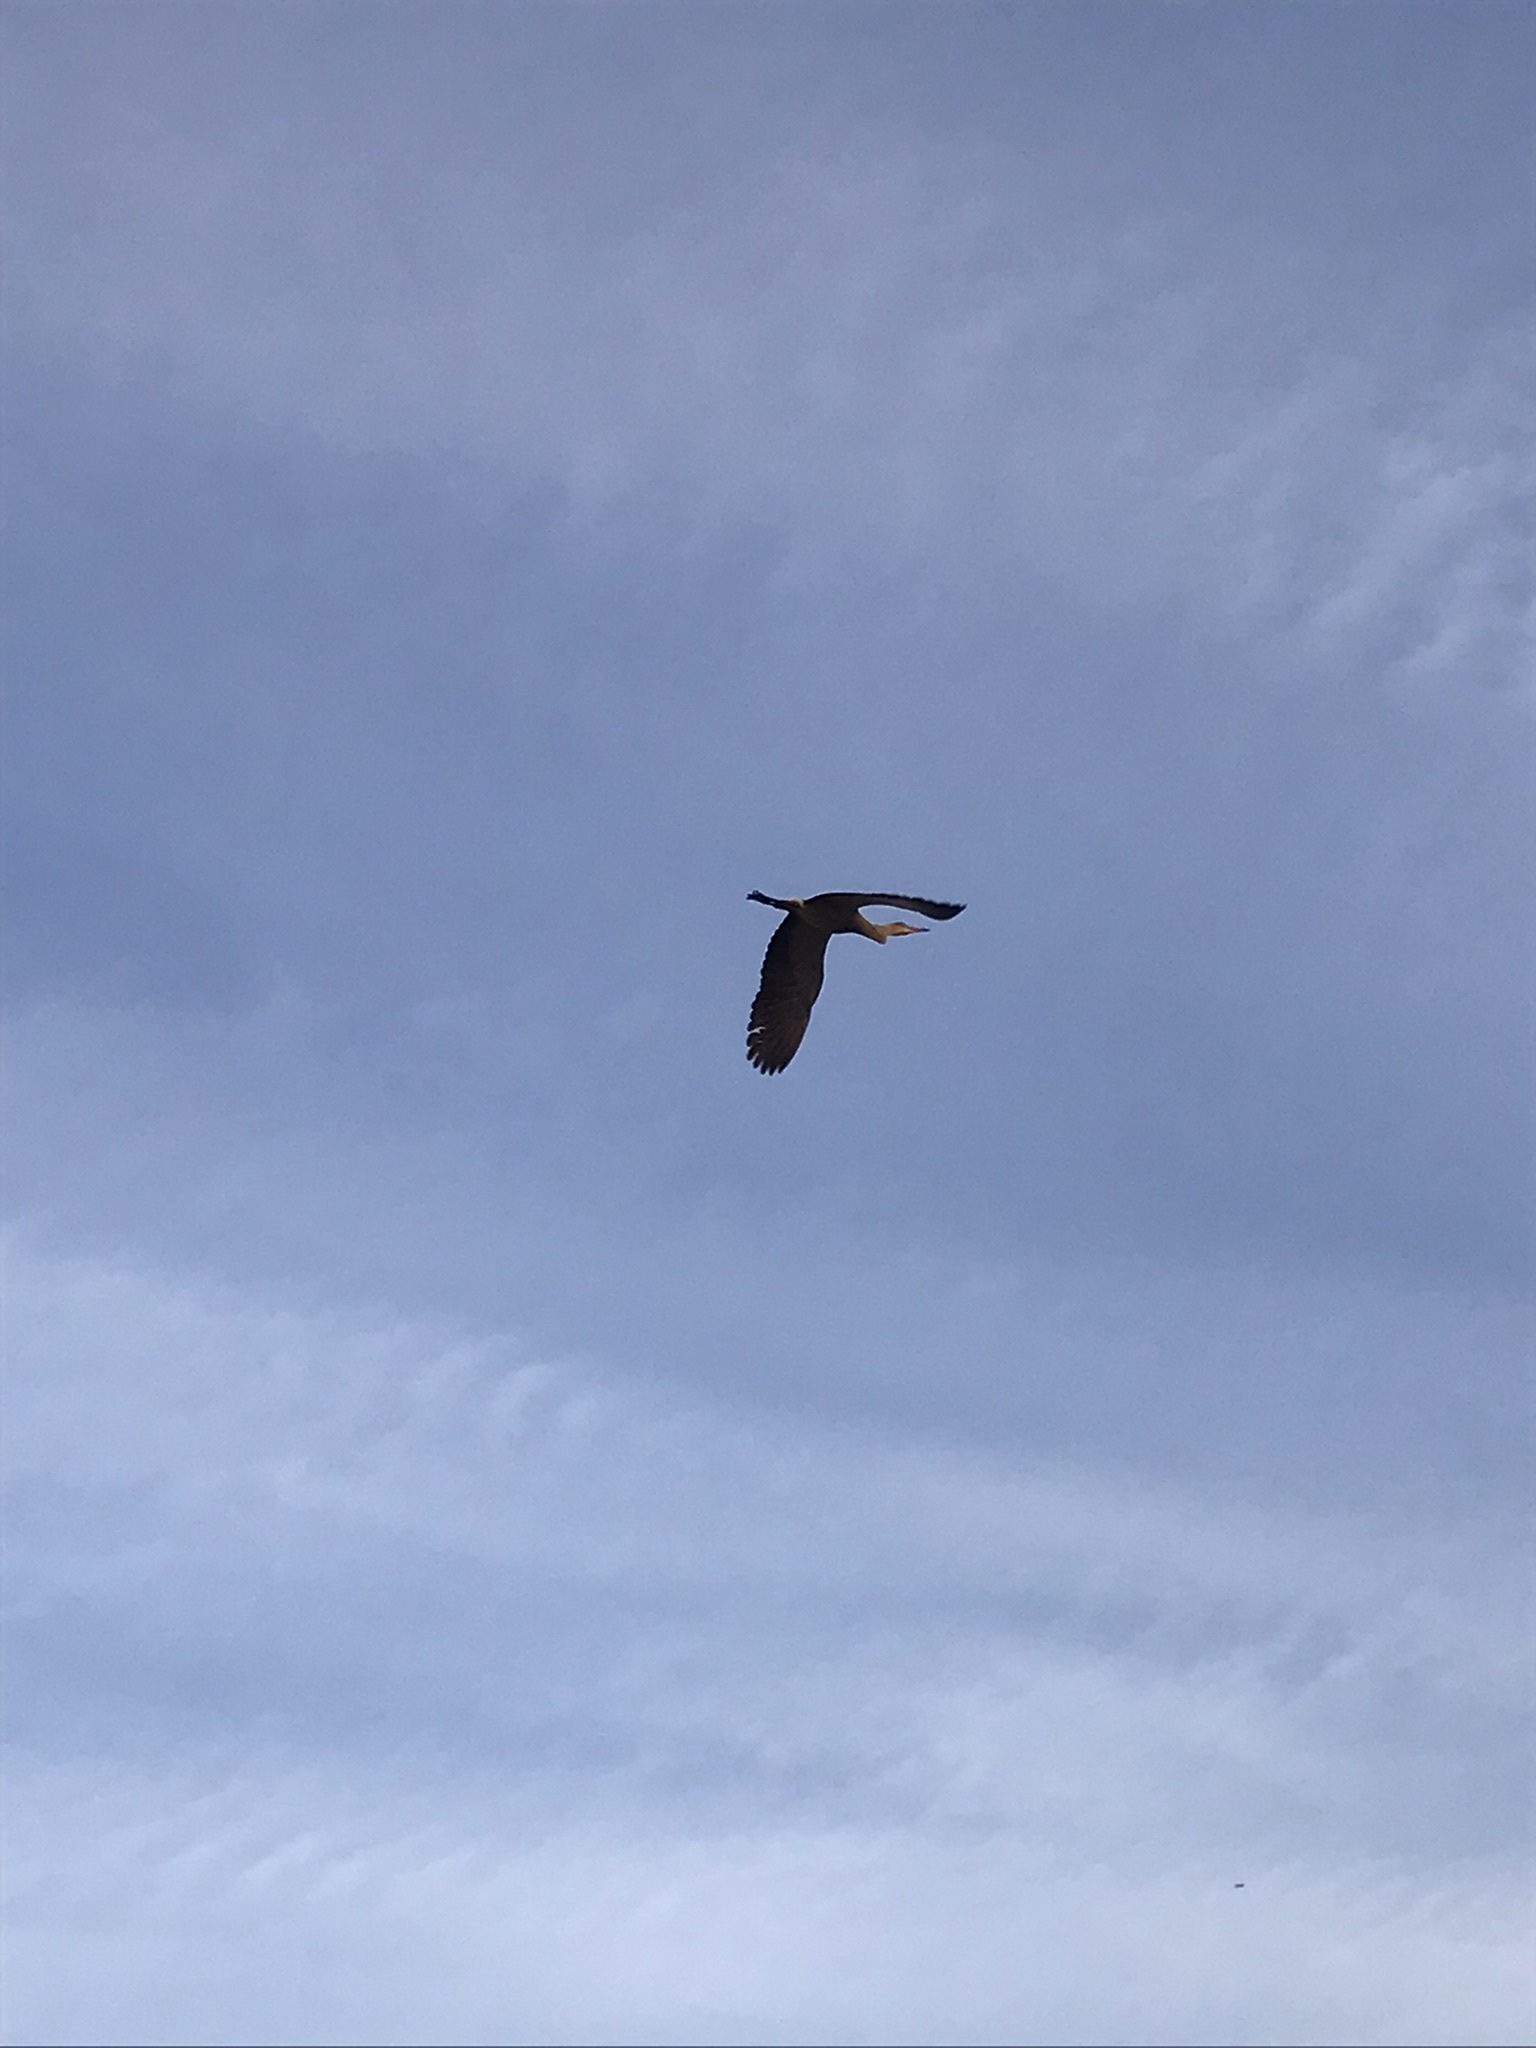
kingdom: Animalia
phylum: Chordata
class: Aves
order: Pelecaniformes
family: Ardeidae
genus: Syrigma
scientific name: Syrigma sibilatrix
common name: Whistling heron
